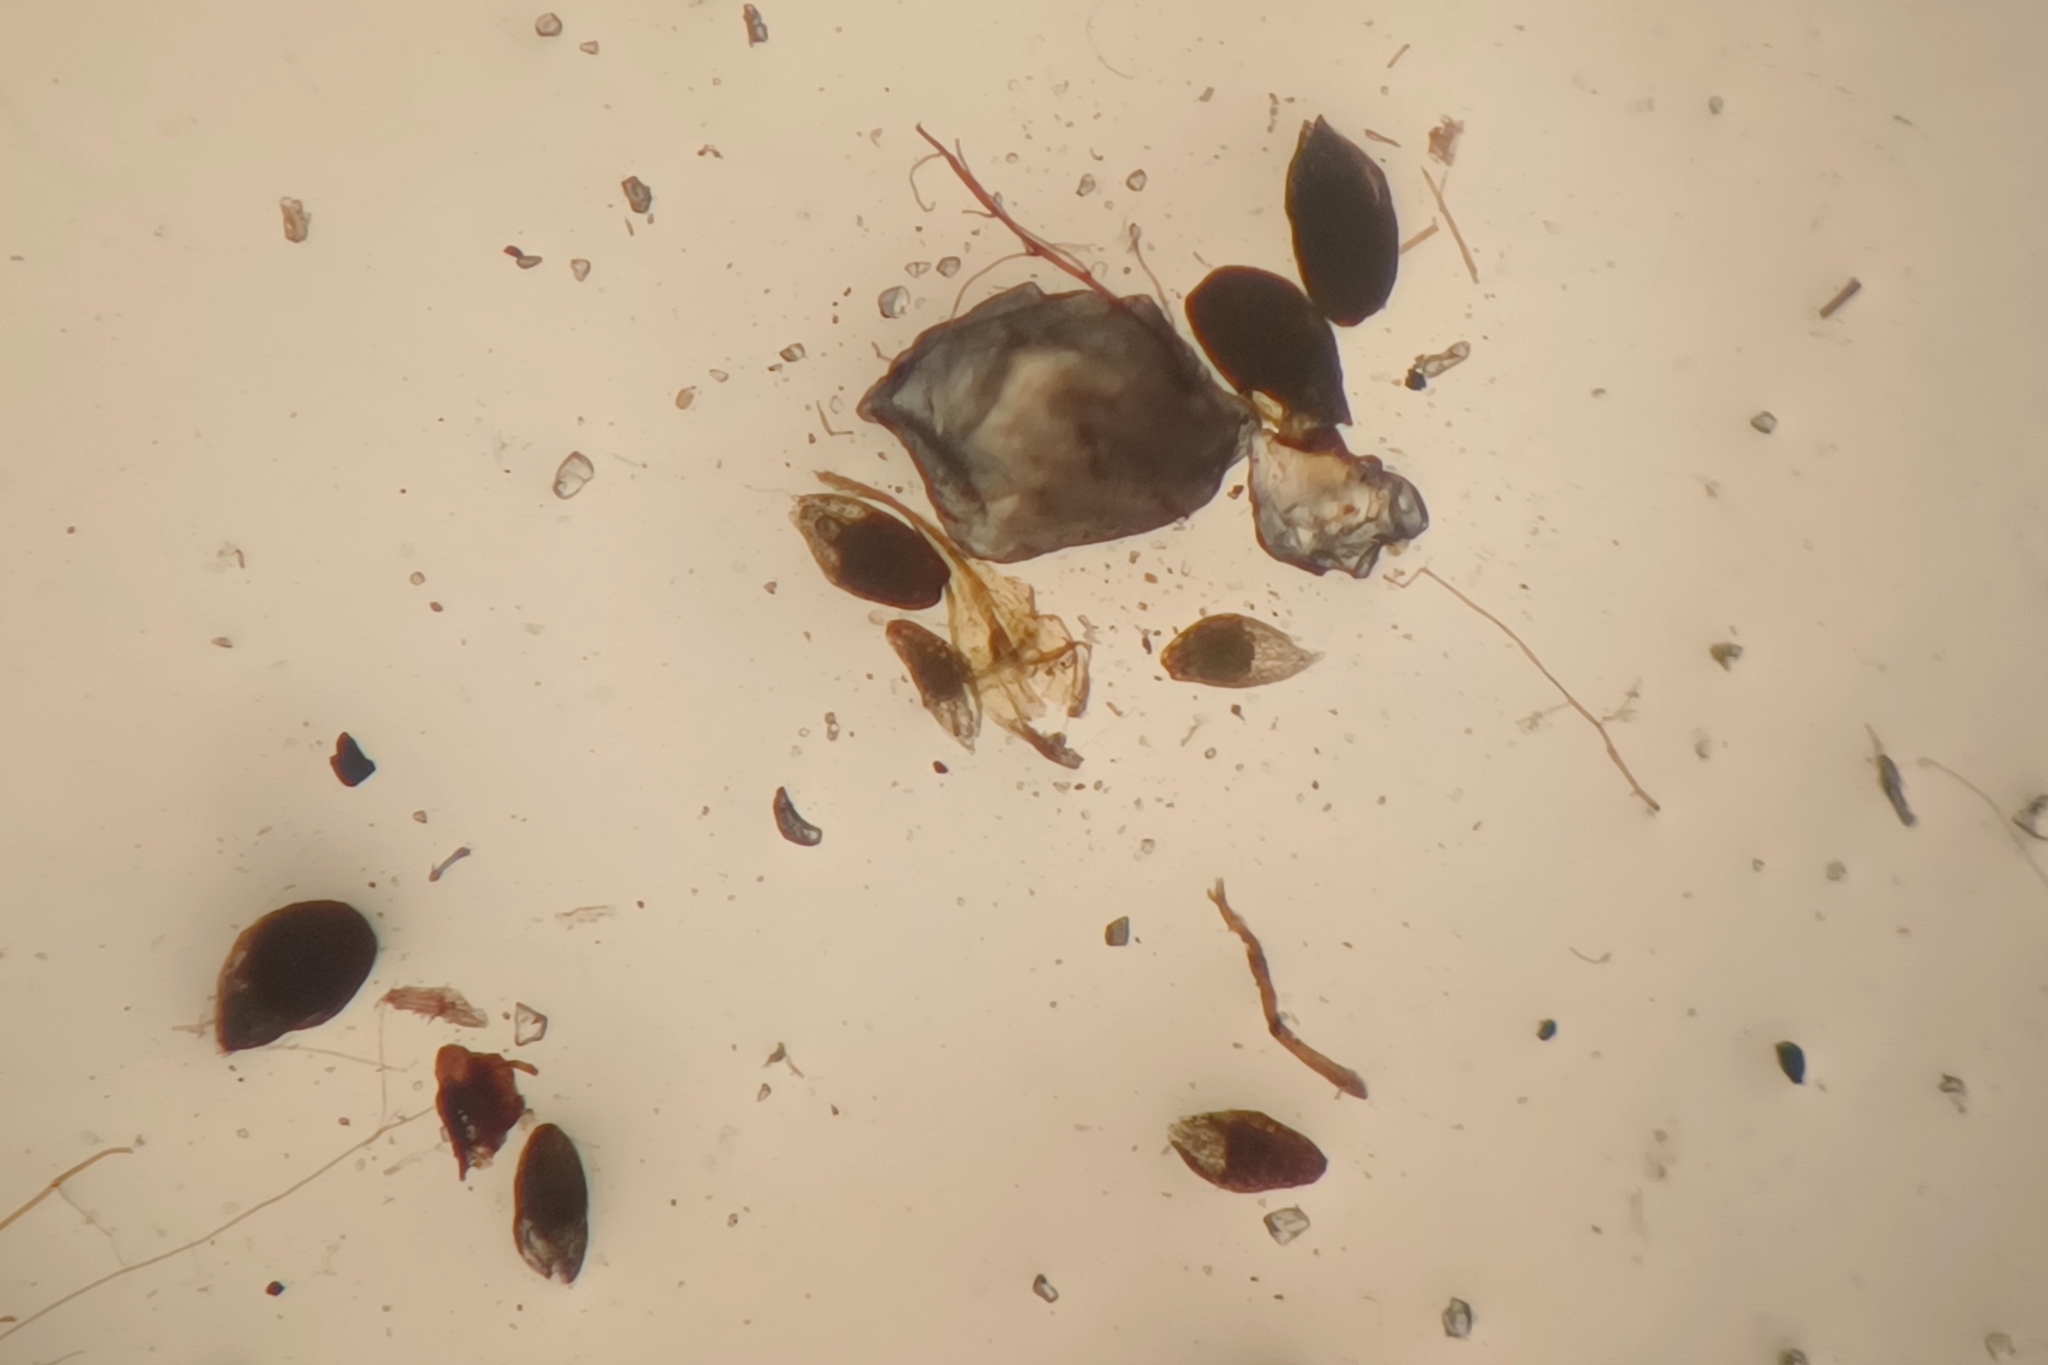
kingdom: Plantae
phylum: Bryophyta
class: Bryopsida
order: Bryales
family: Mniaceae
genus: Pohlia
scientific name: Pohlia andalusica
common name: Andalusian nodding moss
